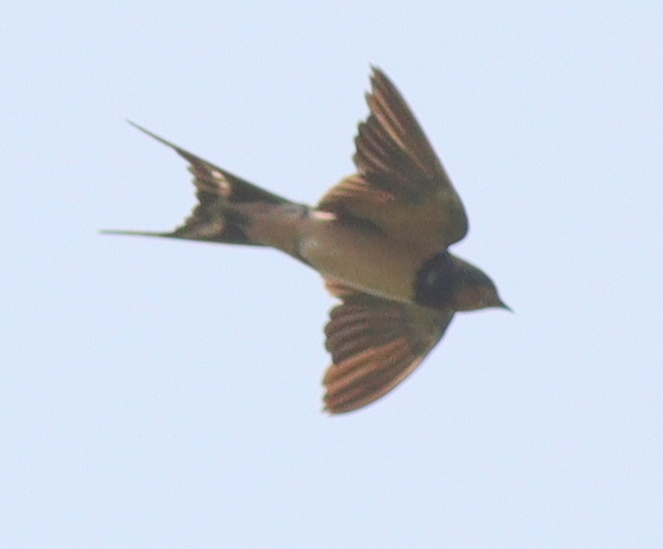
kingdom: Animalia
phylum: Chordata
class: Aves
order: Passeriformes
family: Hirundinidae
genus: Hirundo
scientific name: Hirundo rustica
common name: Barn swallow
